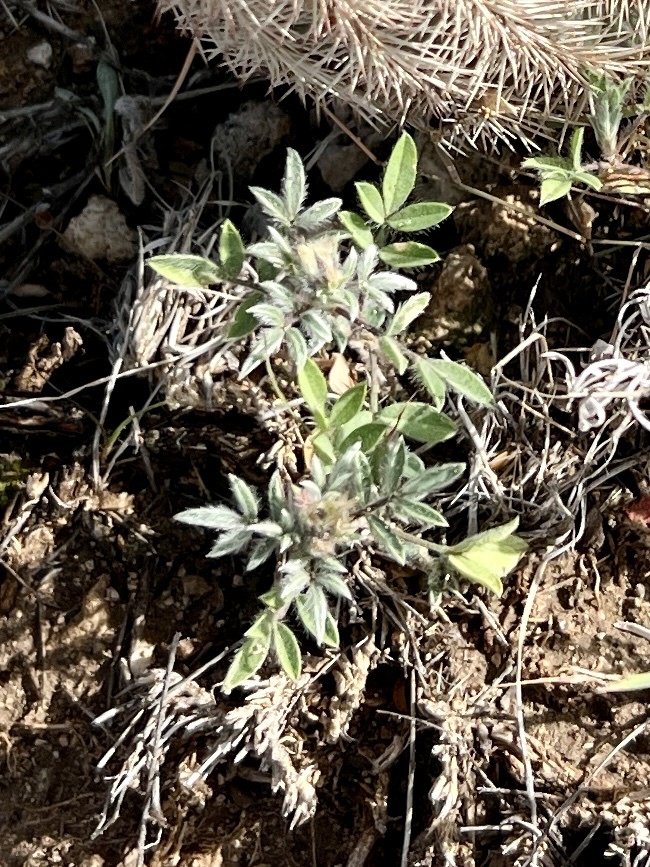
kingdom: Plantae
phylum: Tracheophyta
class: Magnoliopsida
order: Fabales
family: Fabaceae
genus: Dalea
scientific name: Dalea nana
